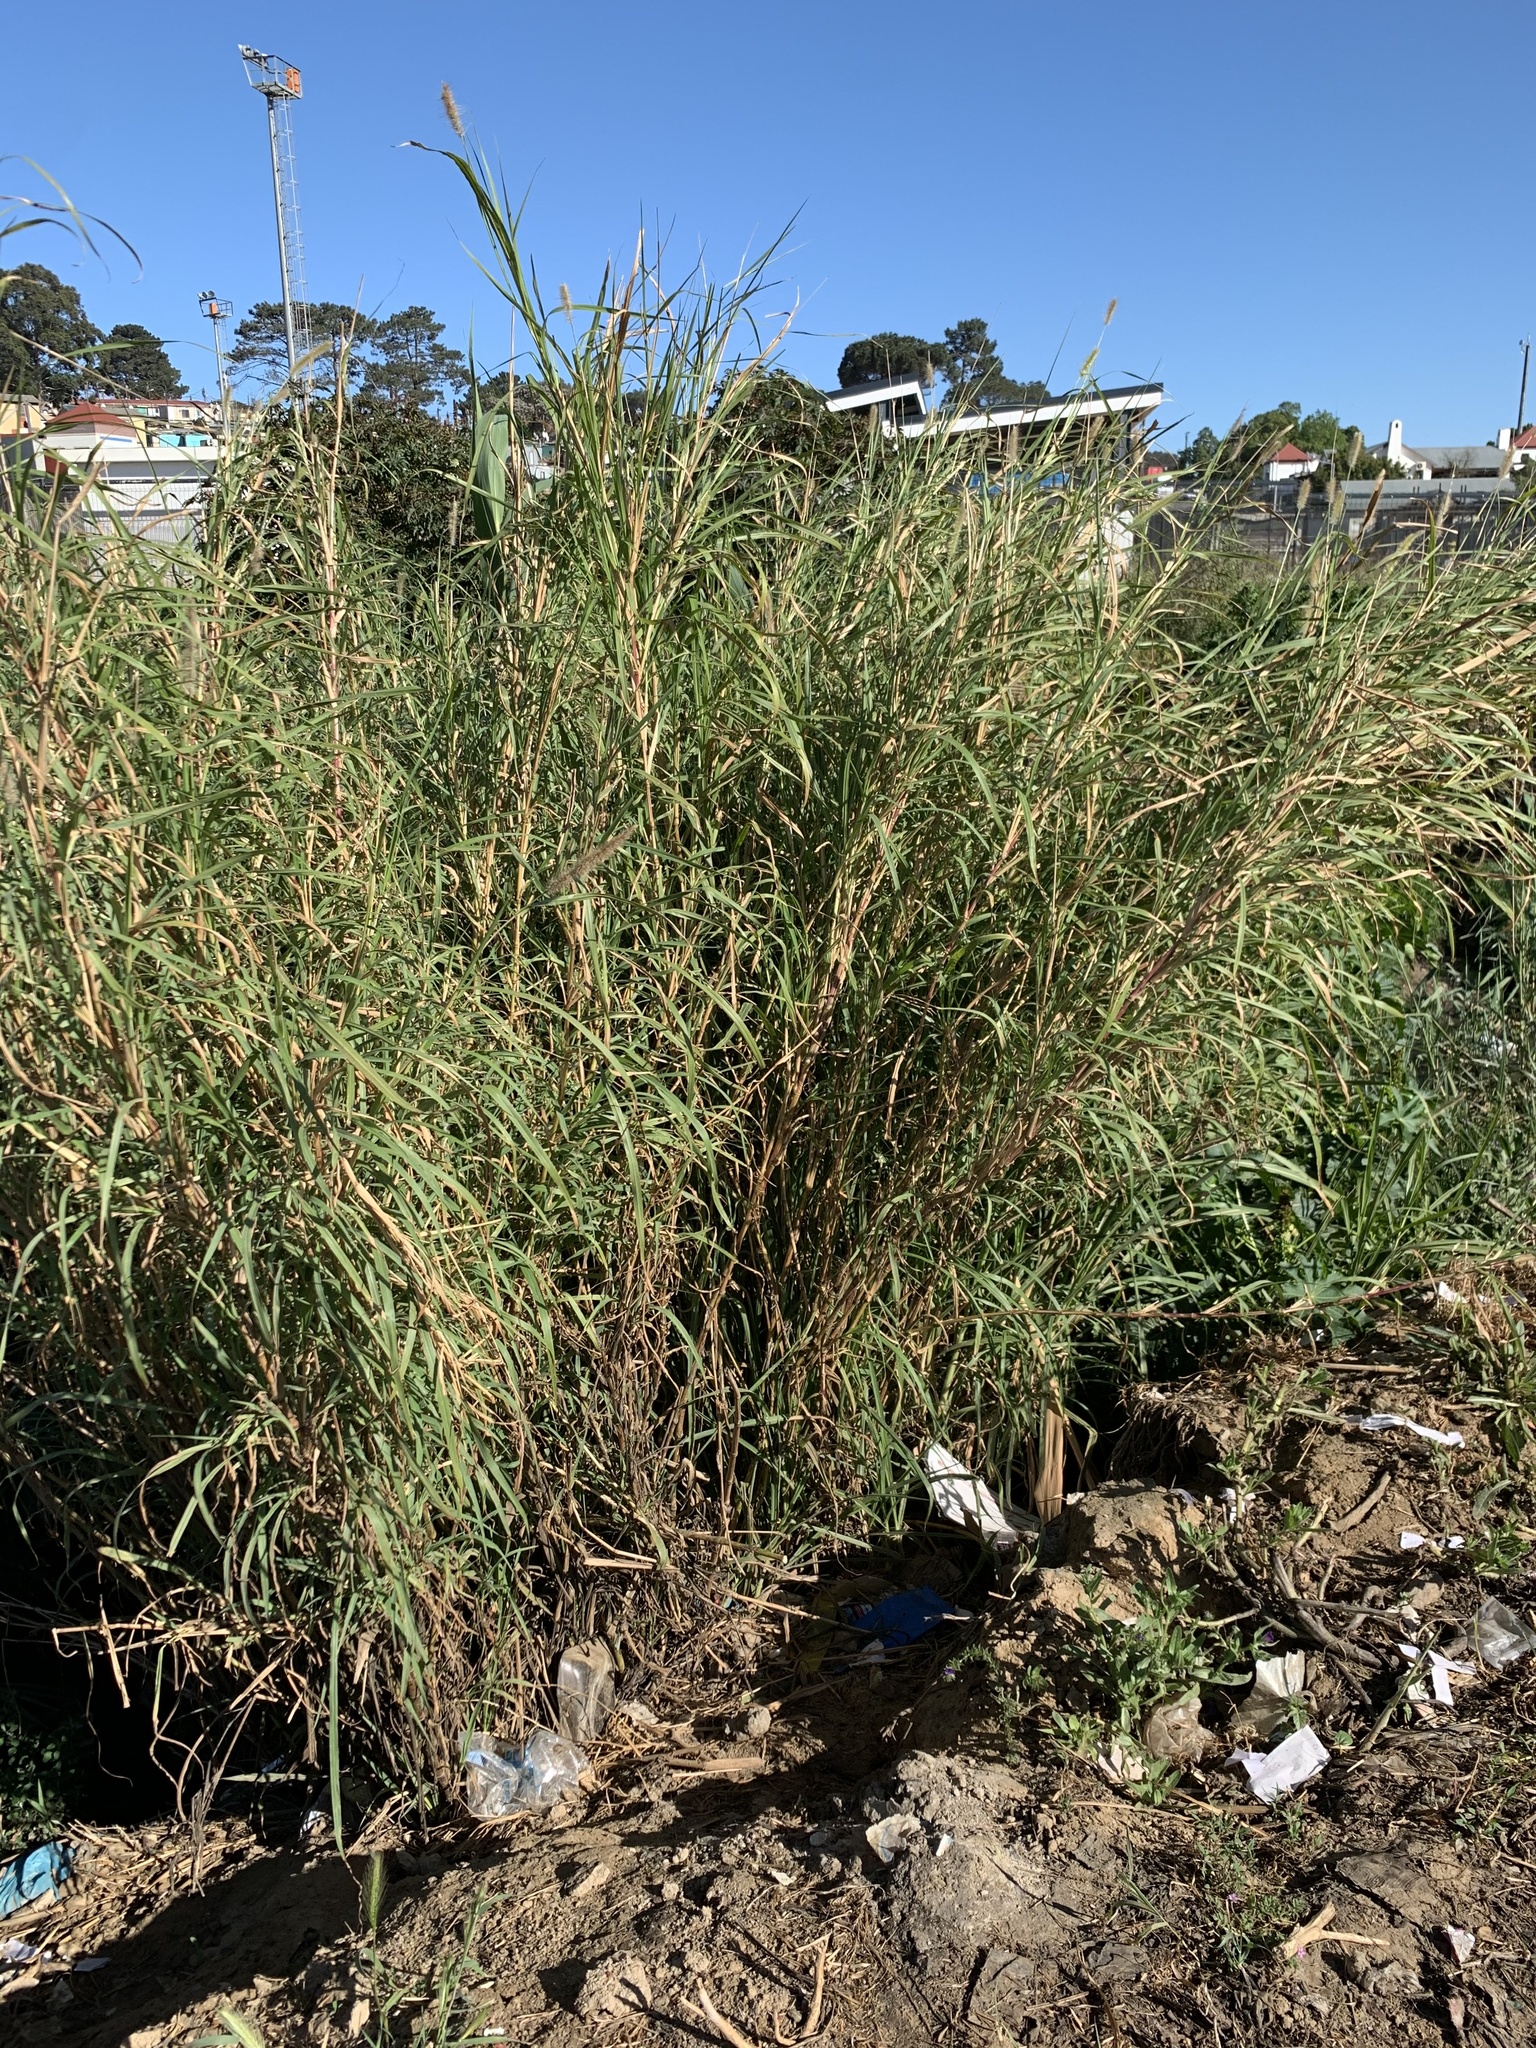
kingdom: Plantae
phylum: Tracheophyta
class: Liliopsida
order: Poales
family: Poaceae
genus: Cenchrus
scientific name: Cenchrus purpureus
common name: Elephant grass
